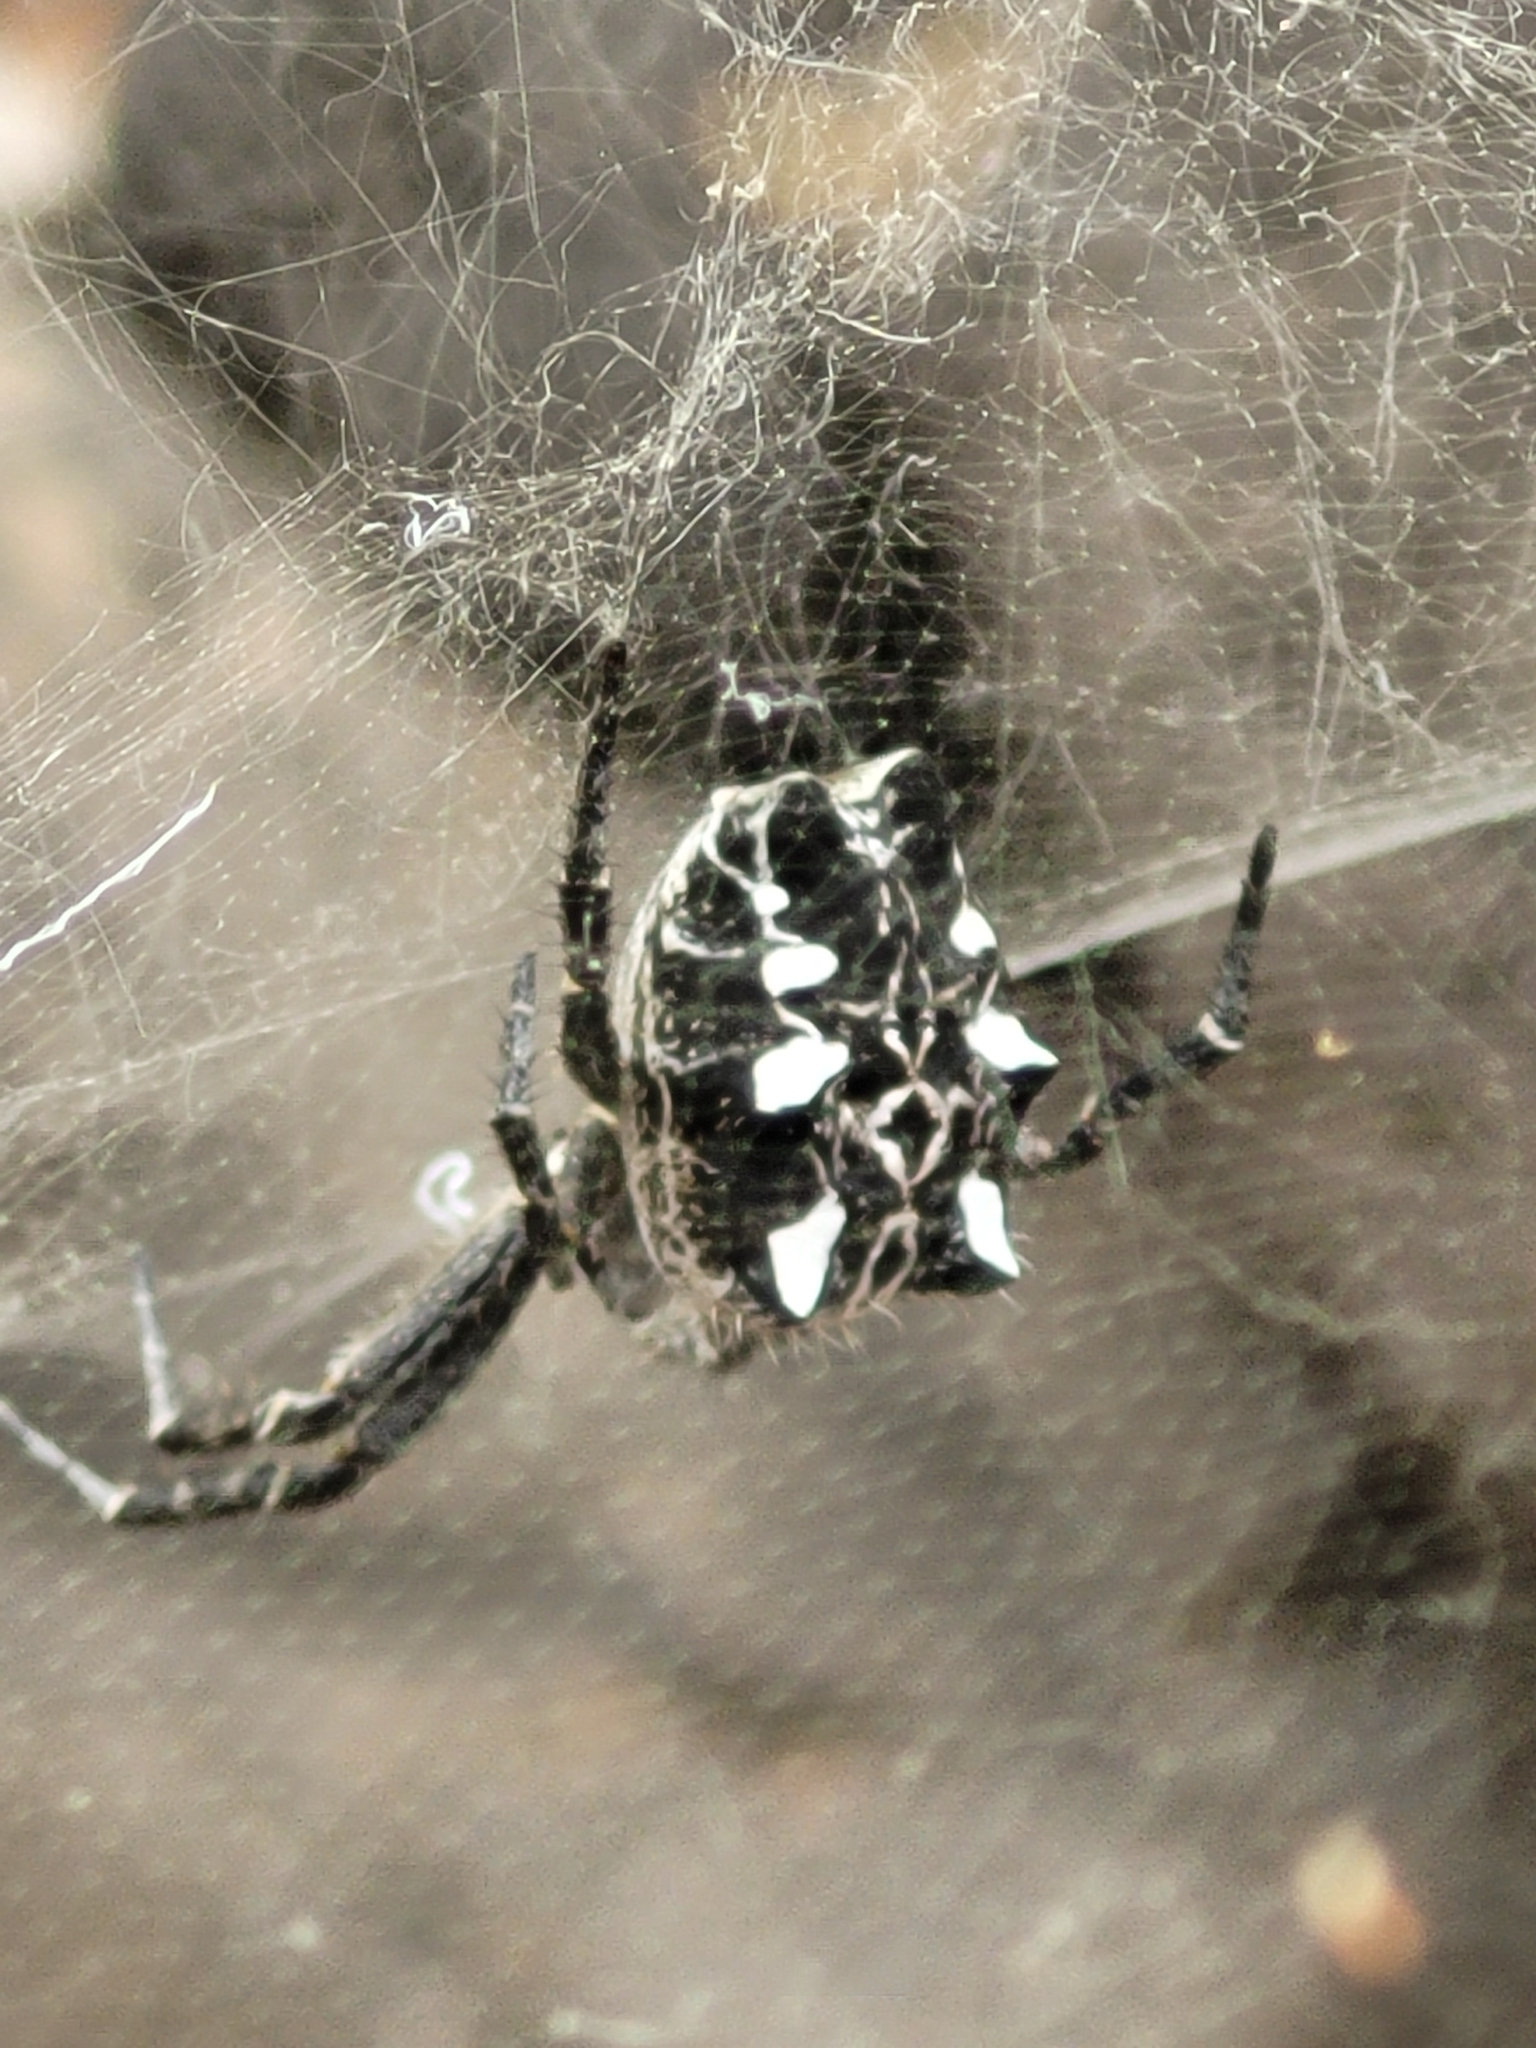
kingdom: Animalia
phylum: Arthropoda
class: Arachnida
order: Araneae
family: Araneidae
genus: Cyrtophora
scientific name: Cyrtophora citricola
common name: Orb weavers
